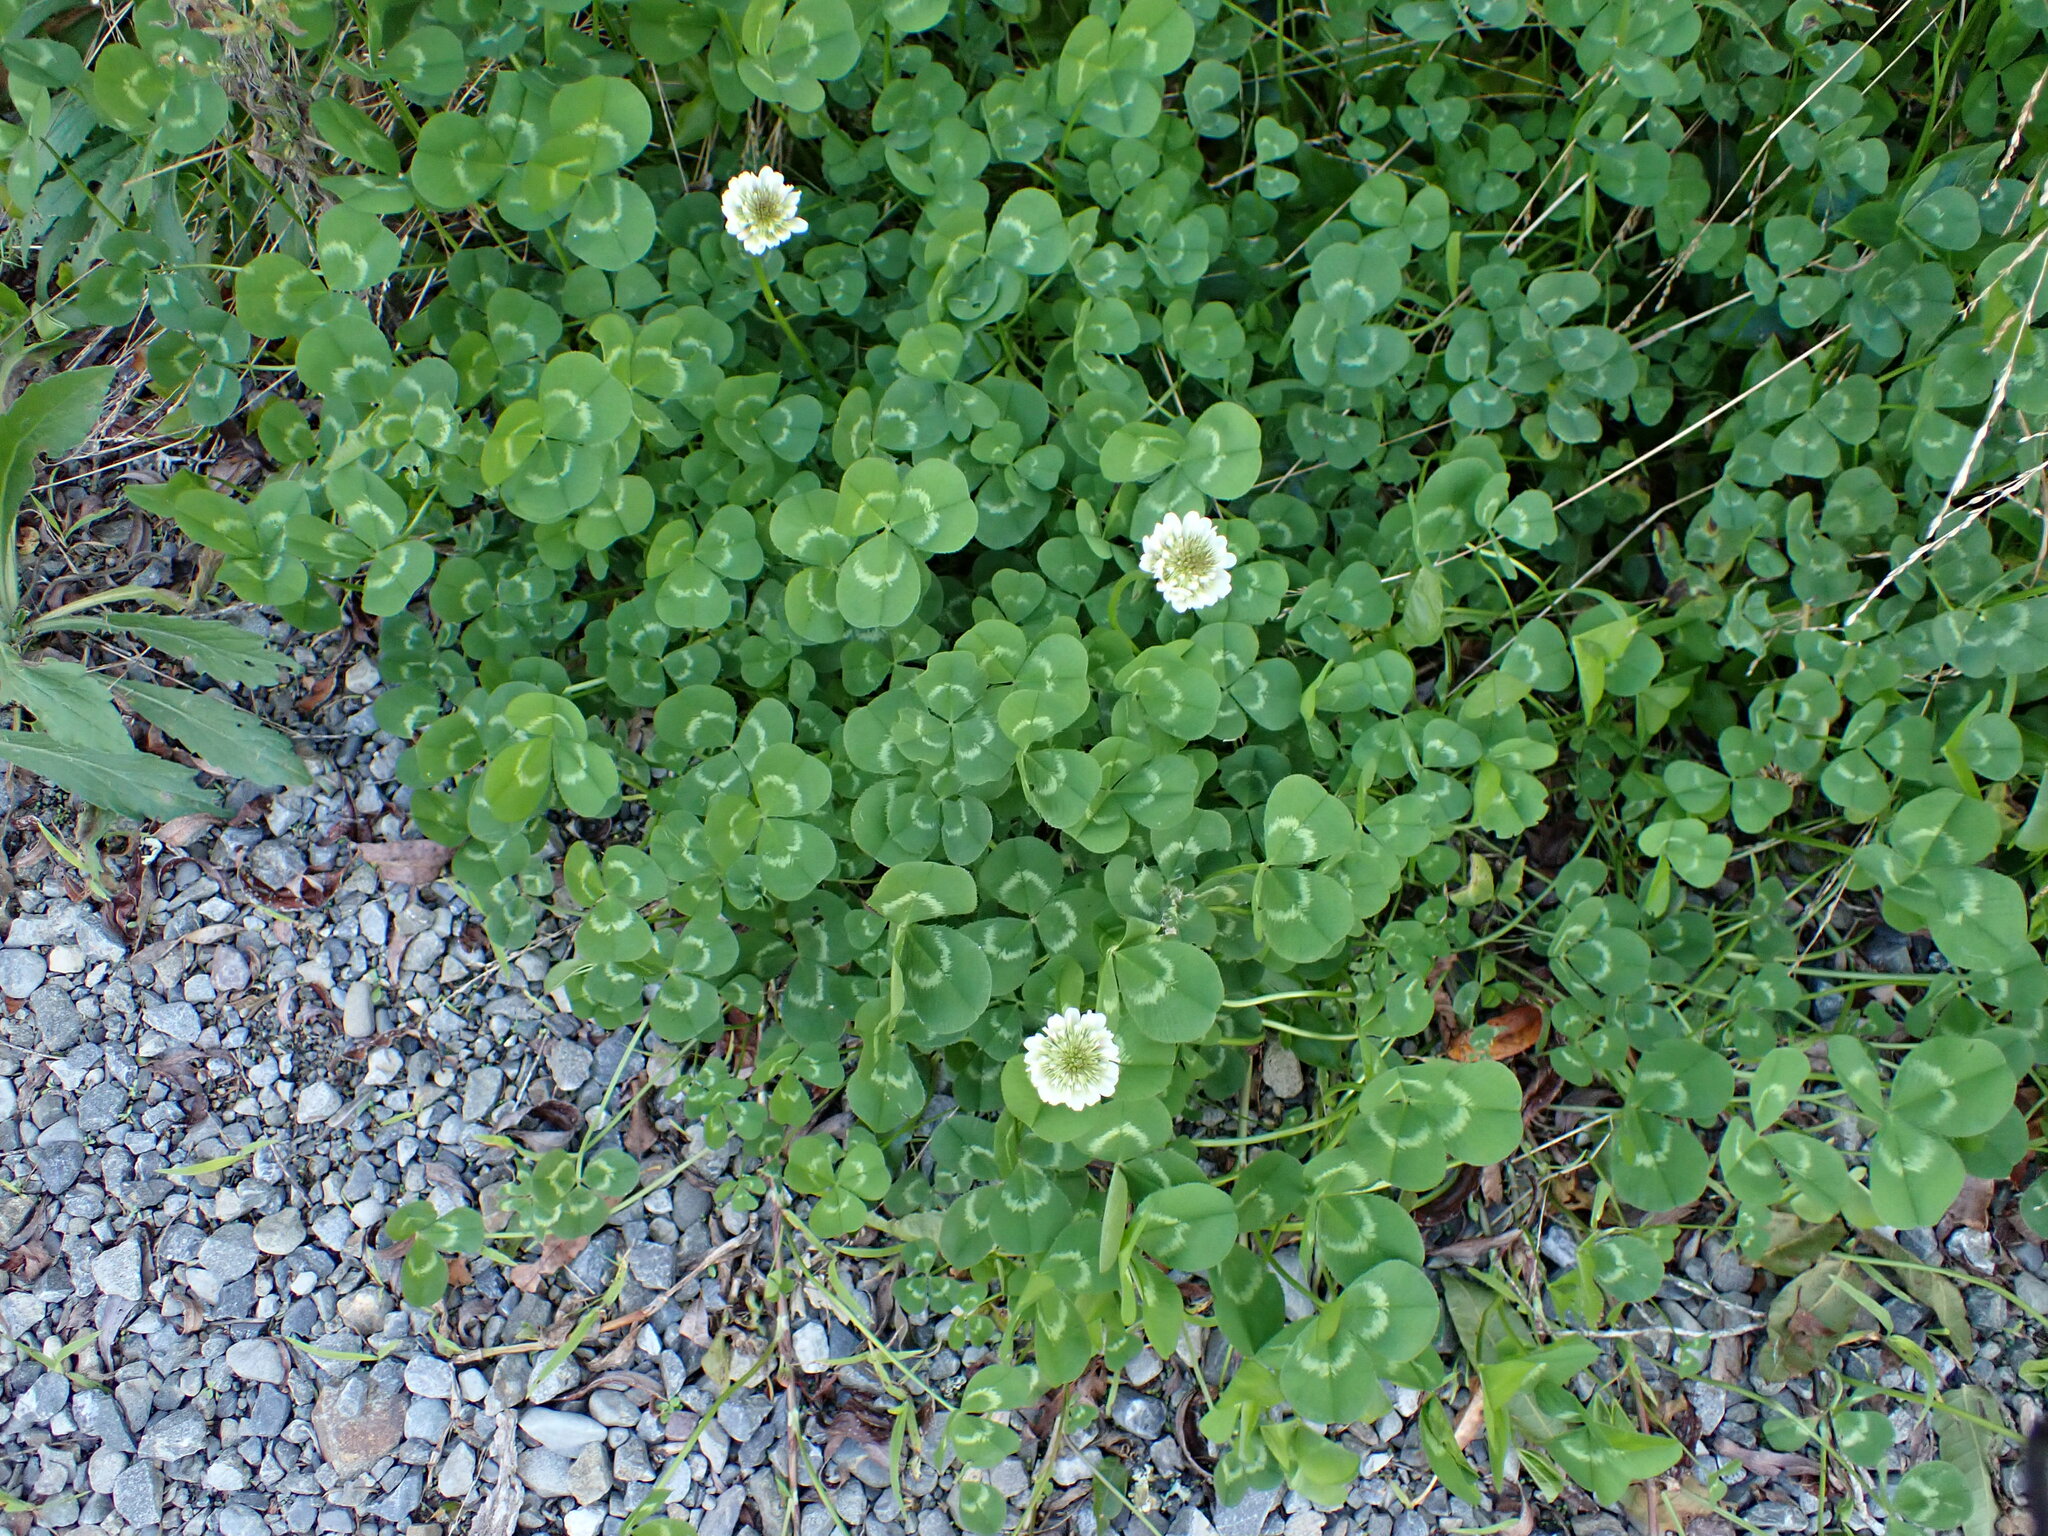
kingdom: Plantae
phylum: Tracheophyta
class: Magnoliopsida
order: Fabales
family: Fabaceae
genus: Trifolium
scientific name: Trifolium repens
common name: White clover
